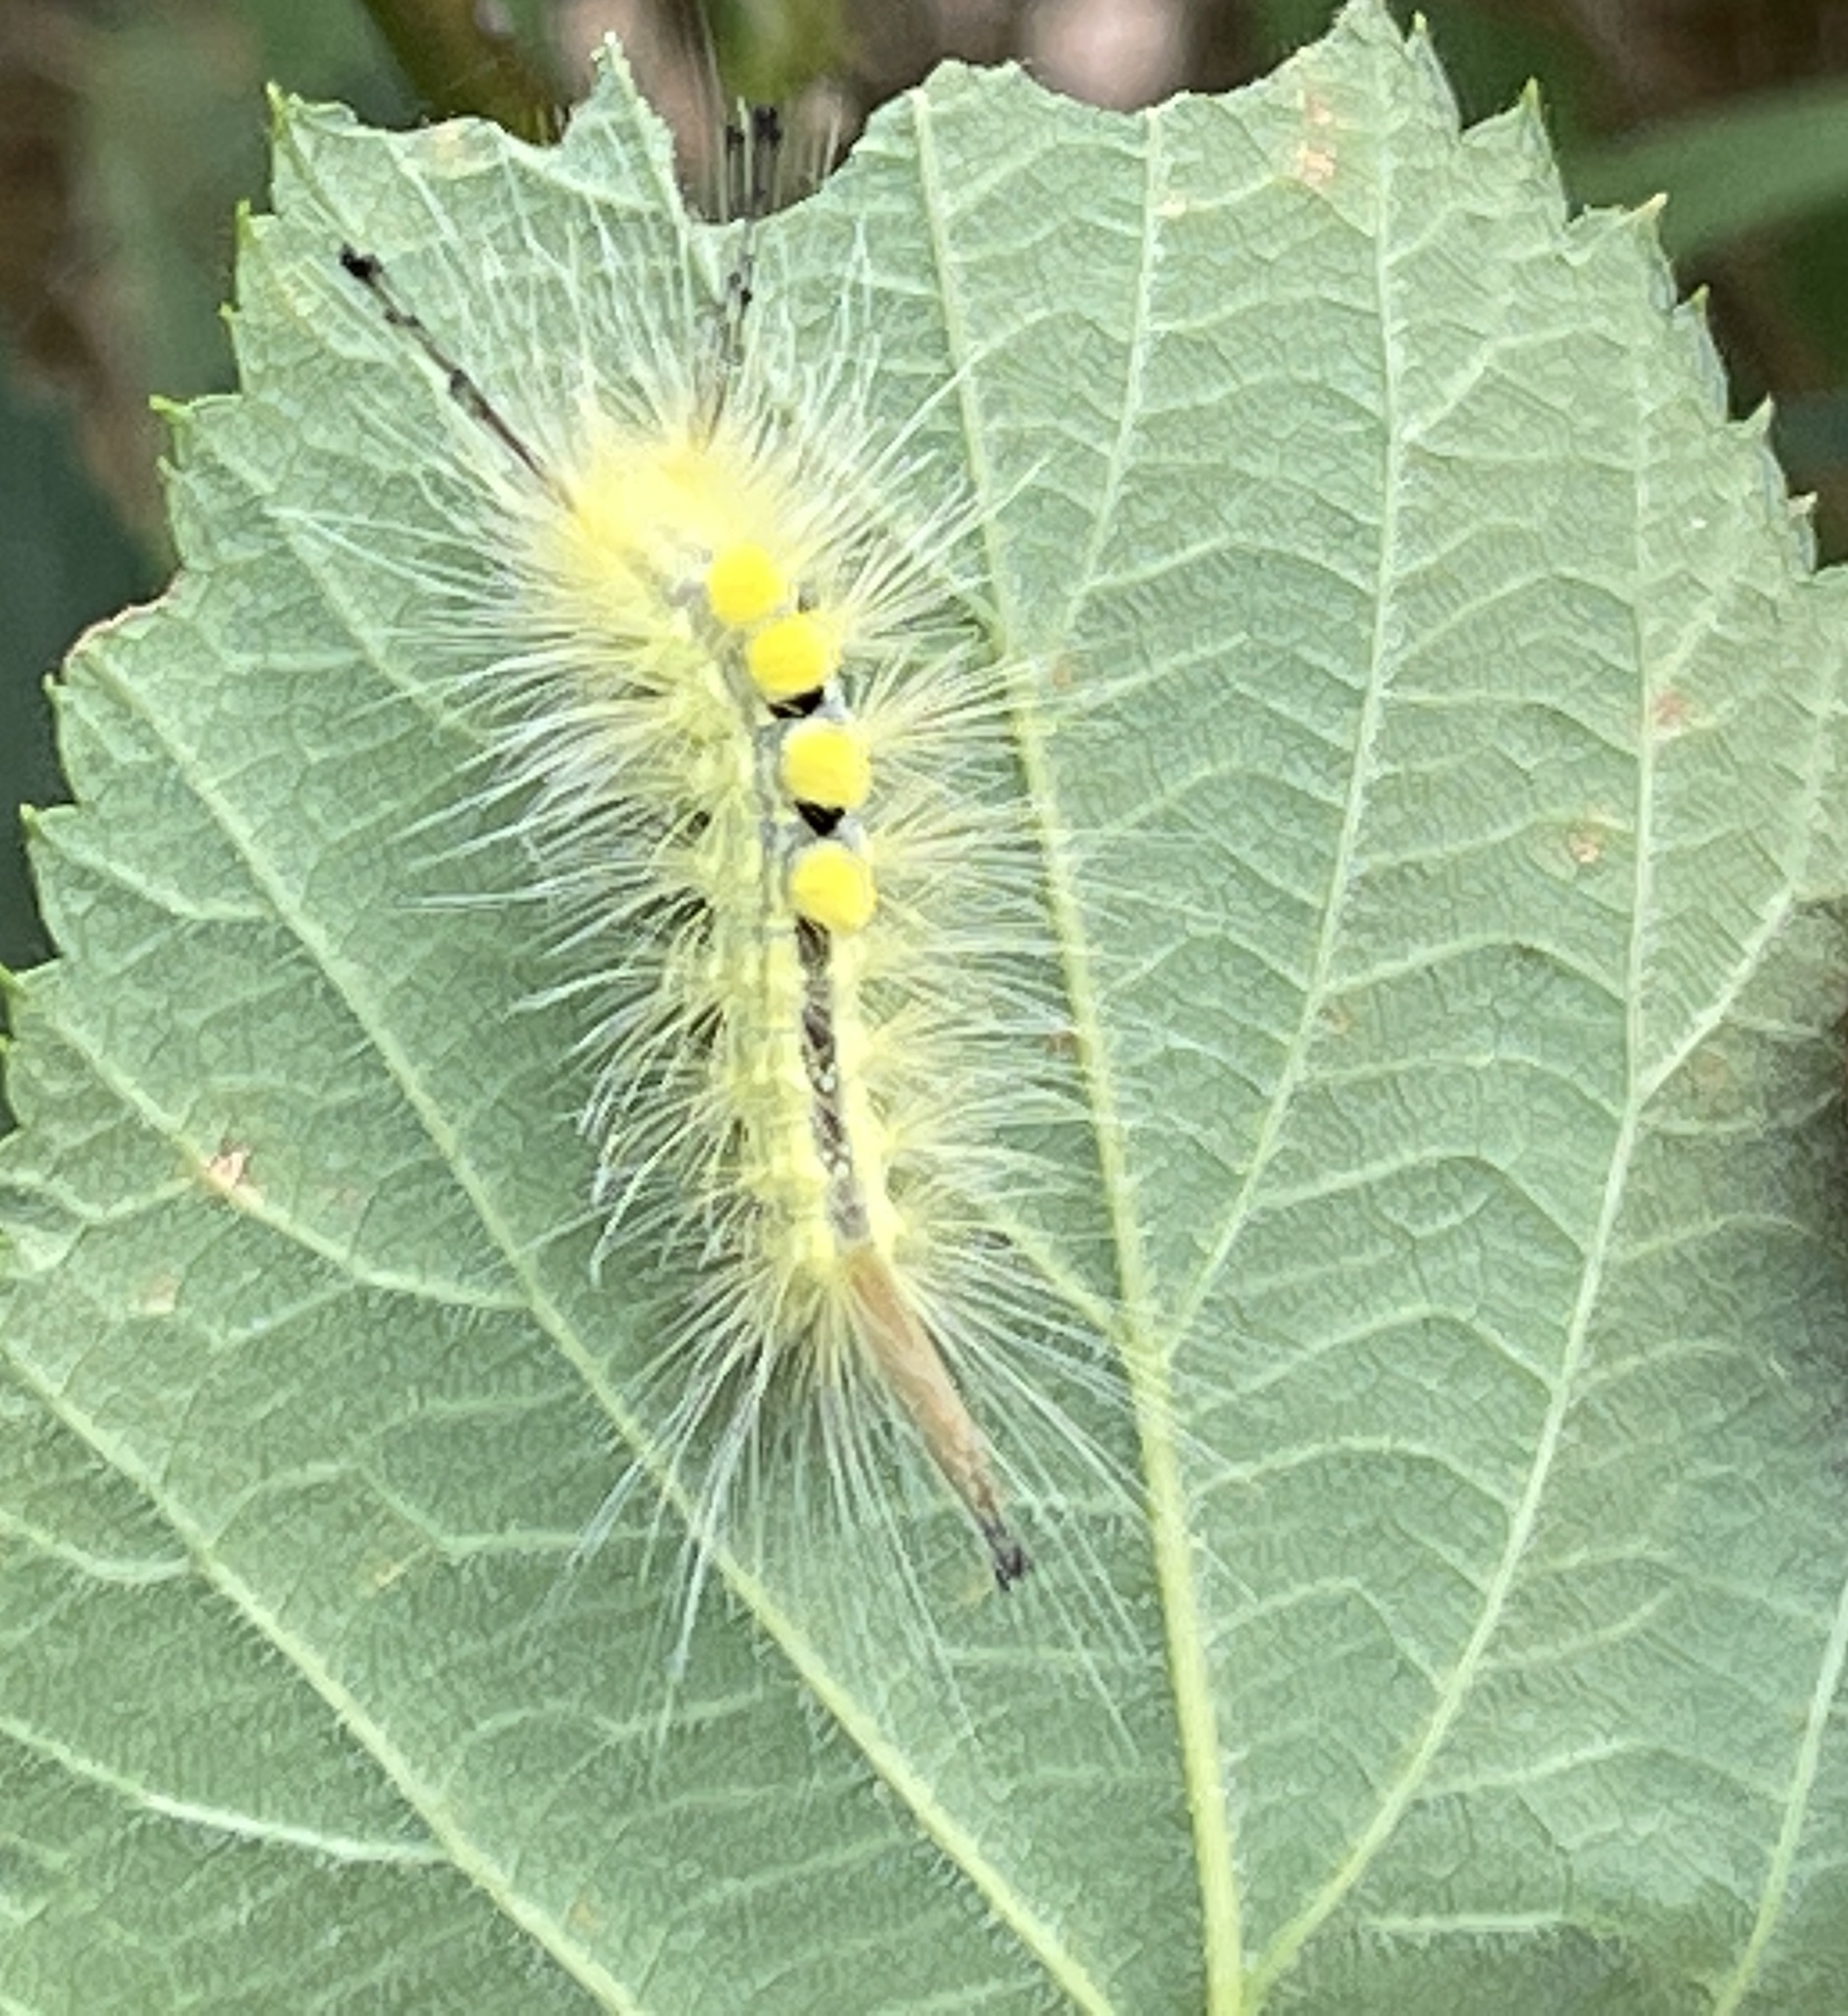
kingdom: Animalia
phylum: Arthropoda
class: Insecta
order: Lepidoptera
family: Erebidae
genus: Orgyia
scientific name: Orgyia definita
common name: Definite tussock moth
